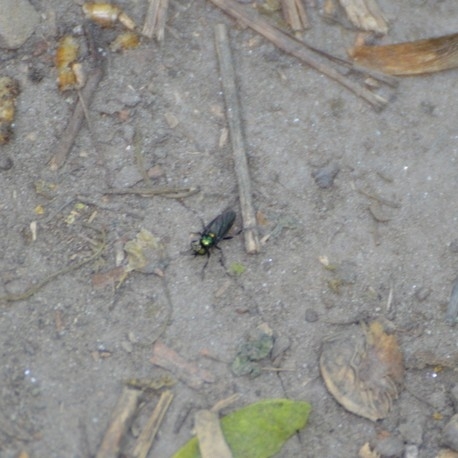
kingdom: Animalia
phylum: Arthropoda
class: Insecta
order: Diptera
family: Stratiomyidae
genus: Actina
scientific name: Actina chalybea
